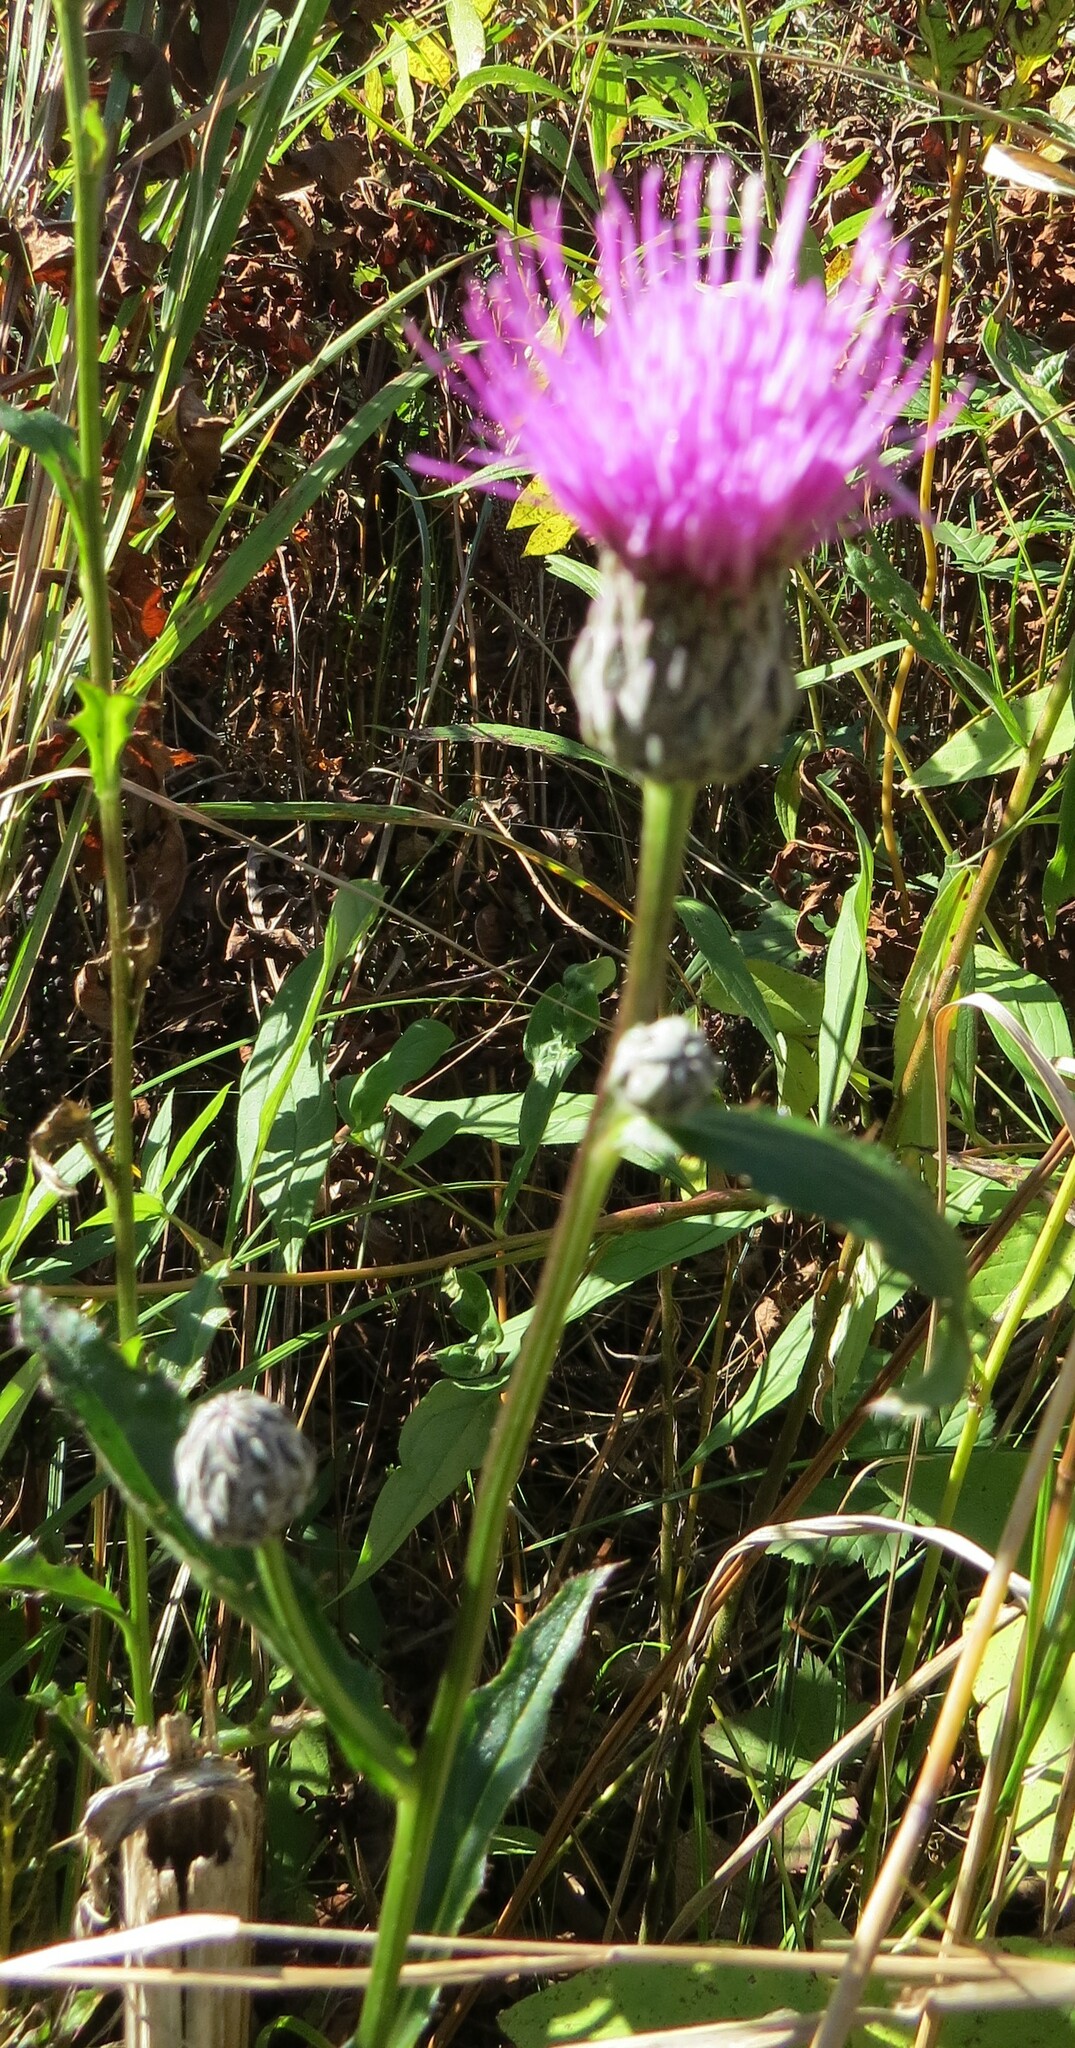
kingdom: Plantae
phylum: Tracheophyta
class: Magnoliopsida
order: Asterales
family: Asteraceae
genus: Cirsium
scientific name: Cirsium muticum
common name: Dunce-nettle
